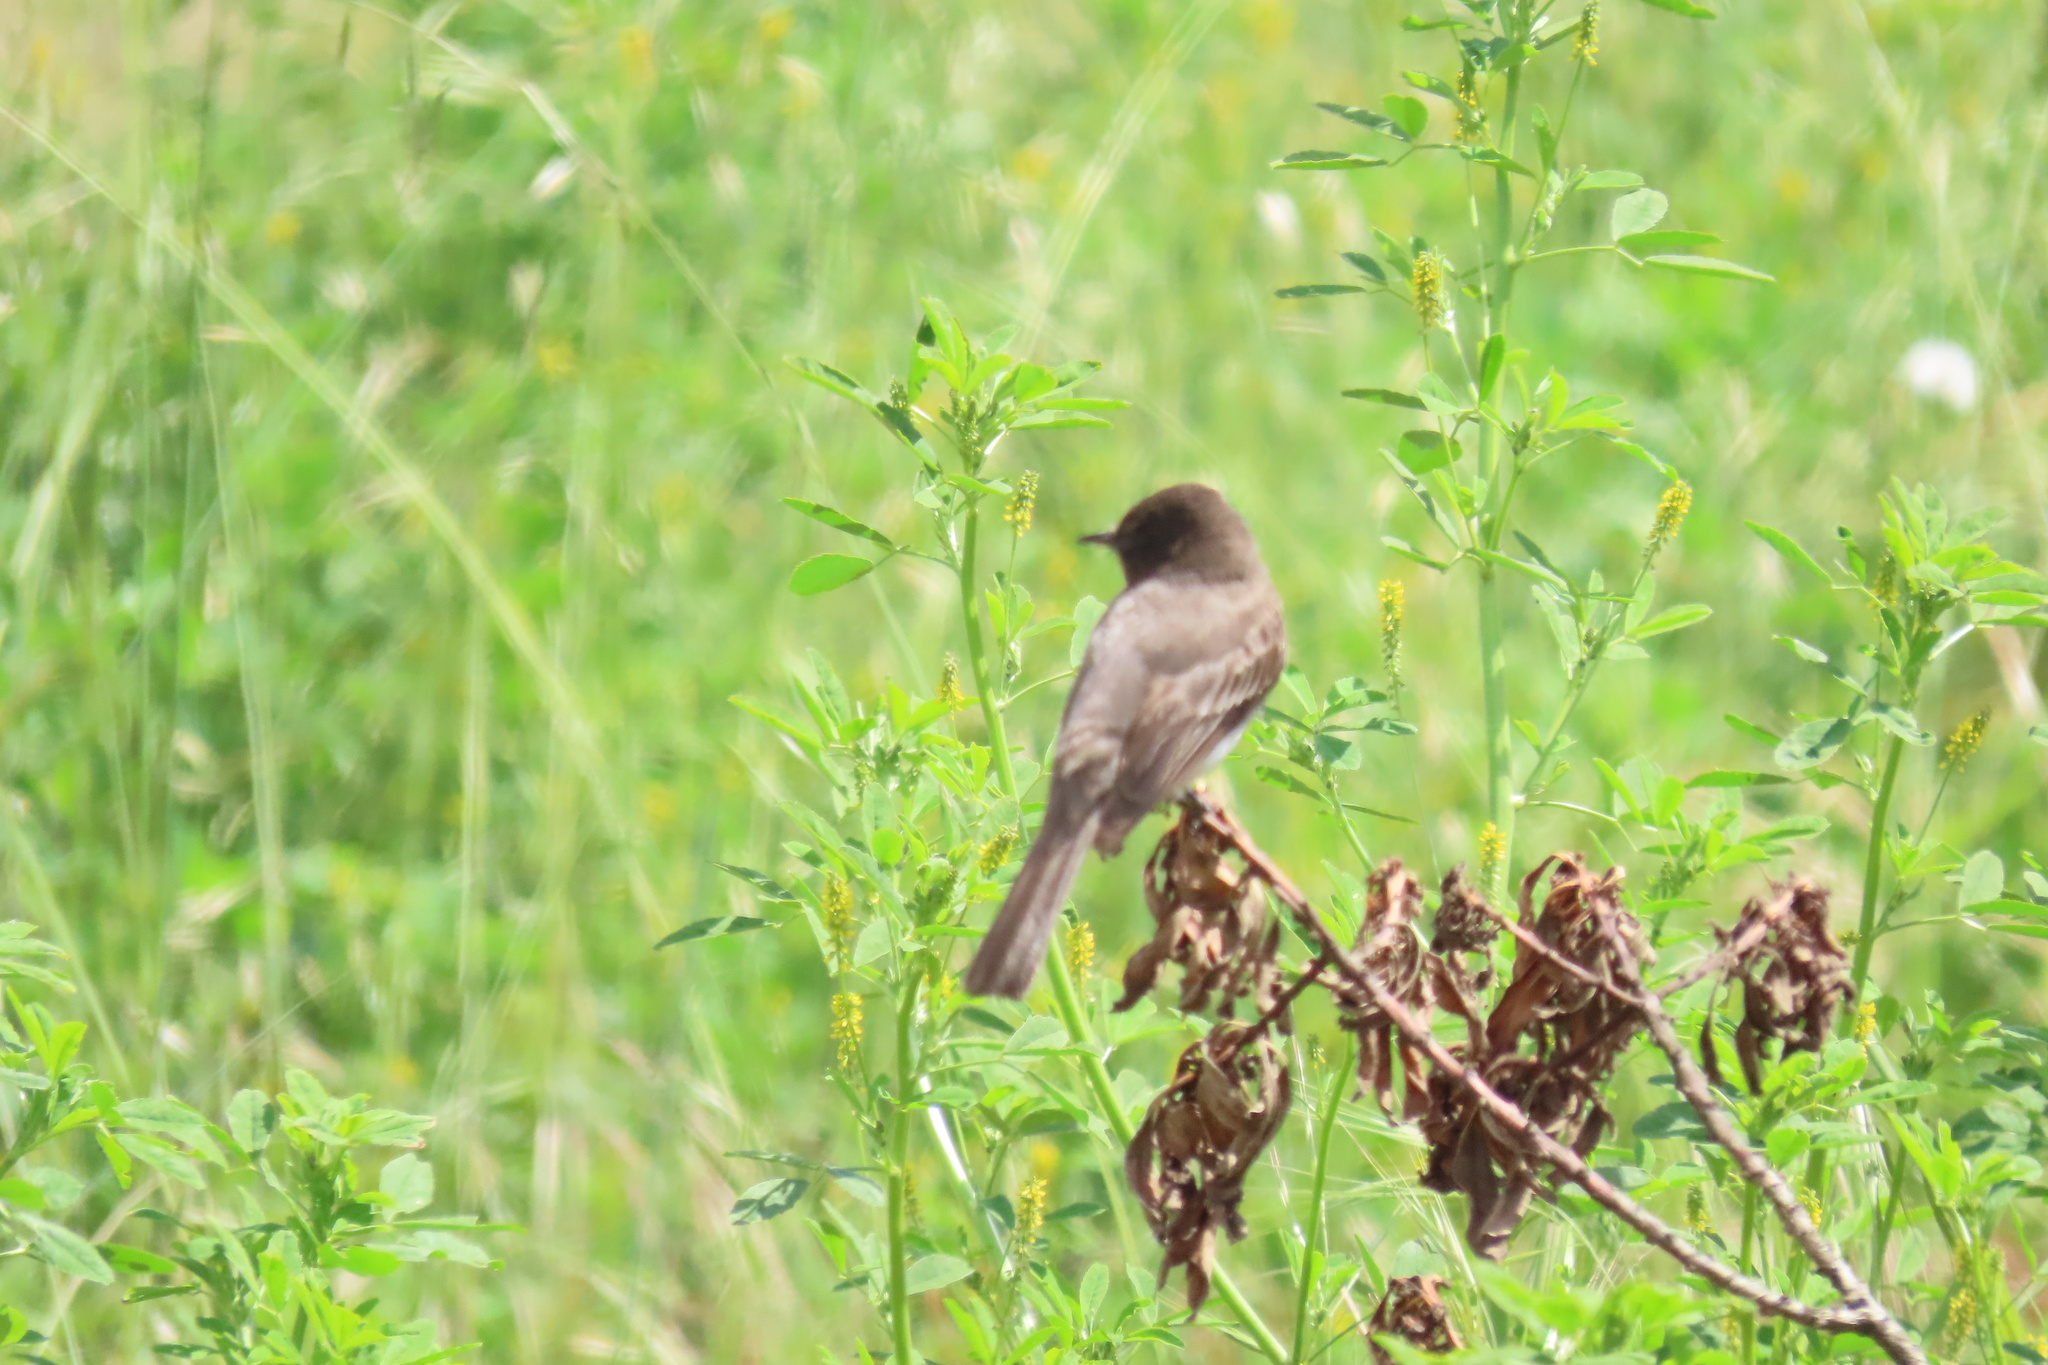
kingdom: Animalia
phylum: Chordata
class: Aves
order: Passeriformes
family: Tyrannidae
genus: Sayornis
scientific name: Sayornis nigricans
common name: Black phoebe
